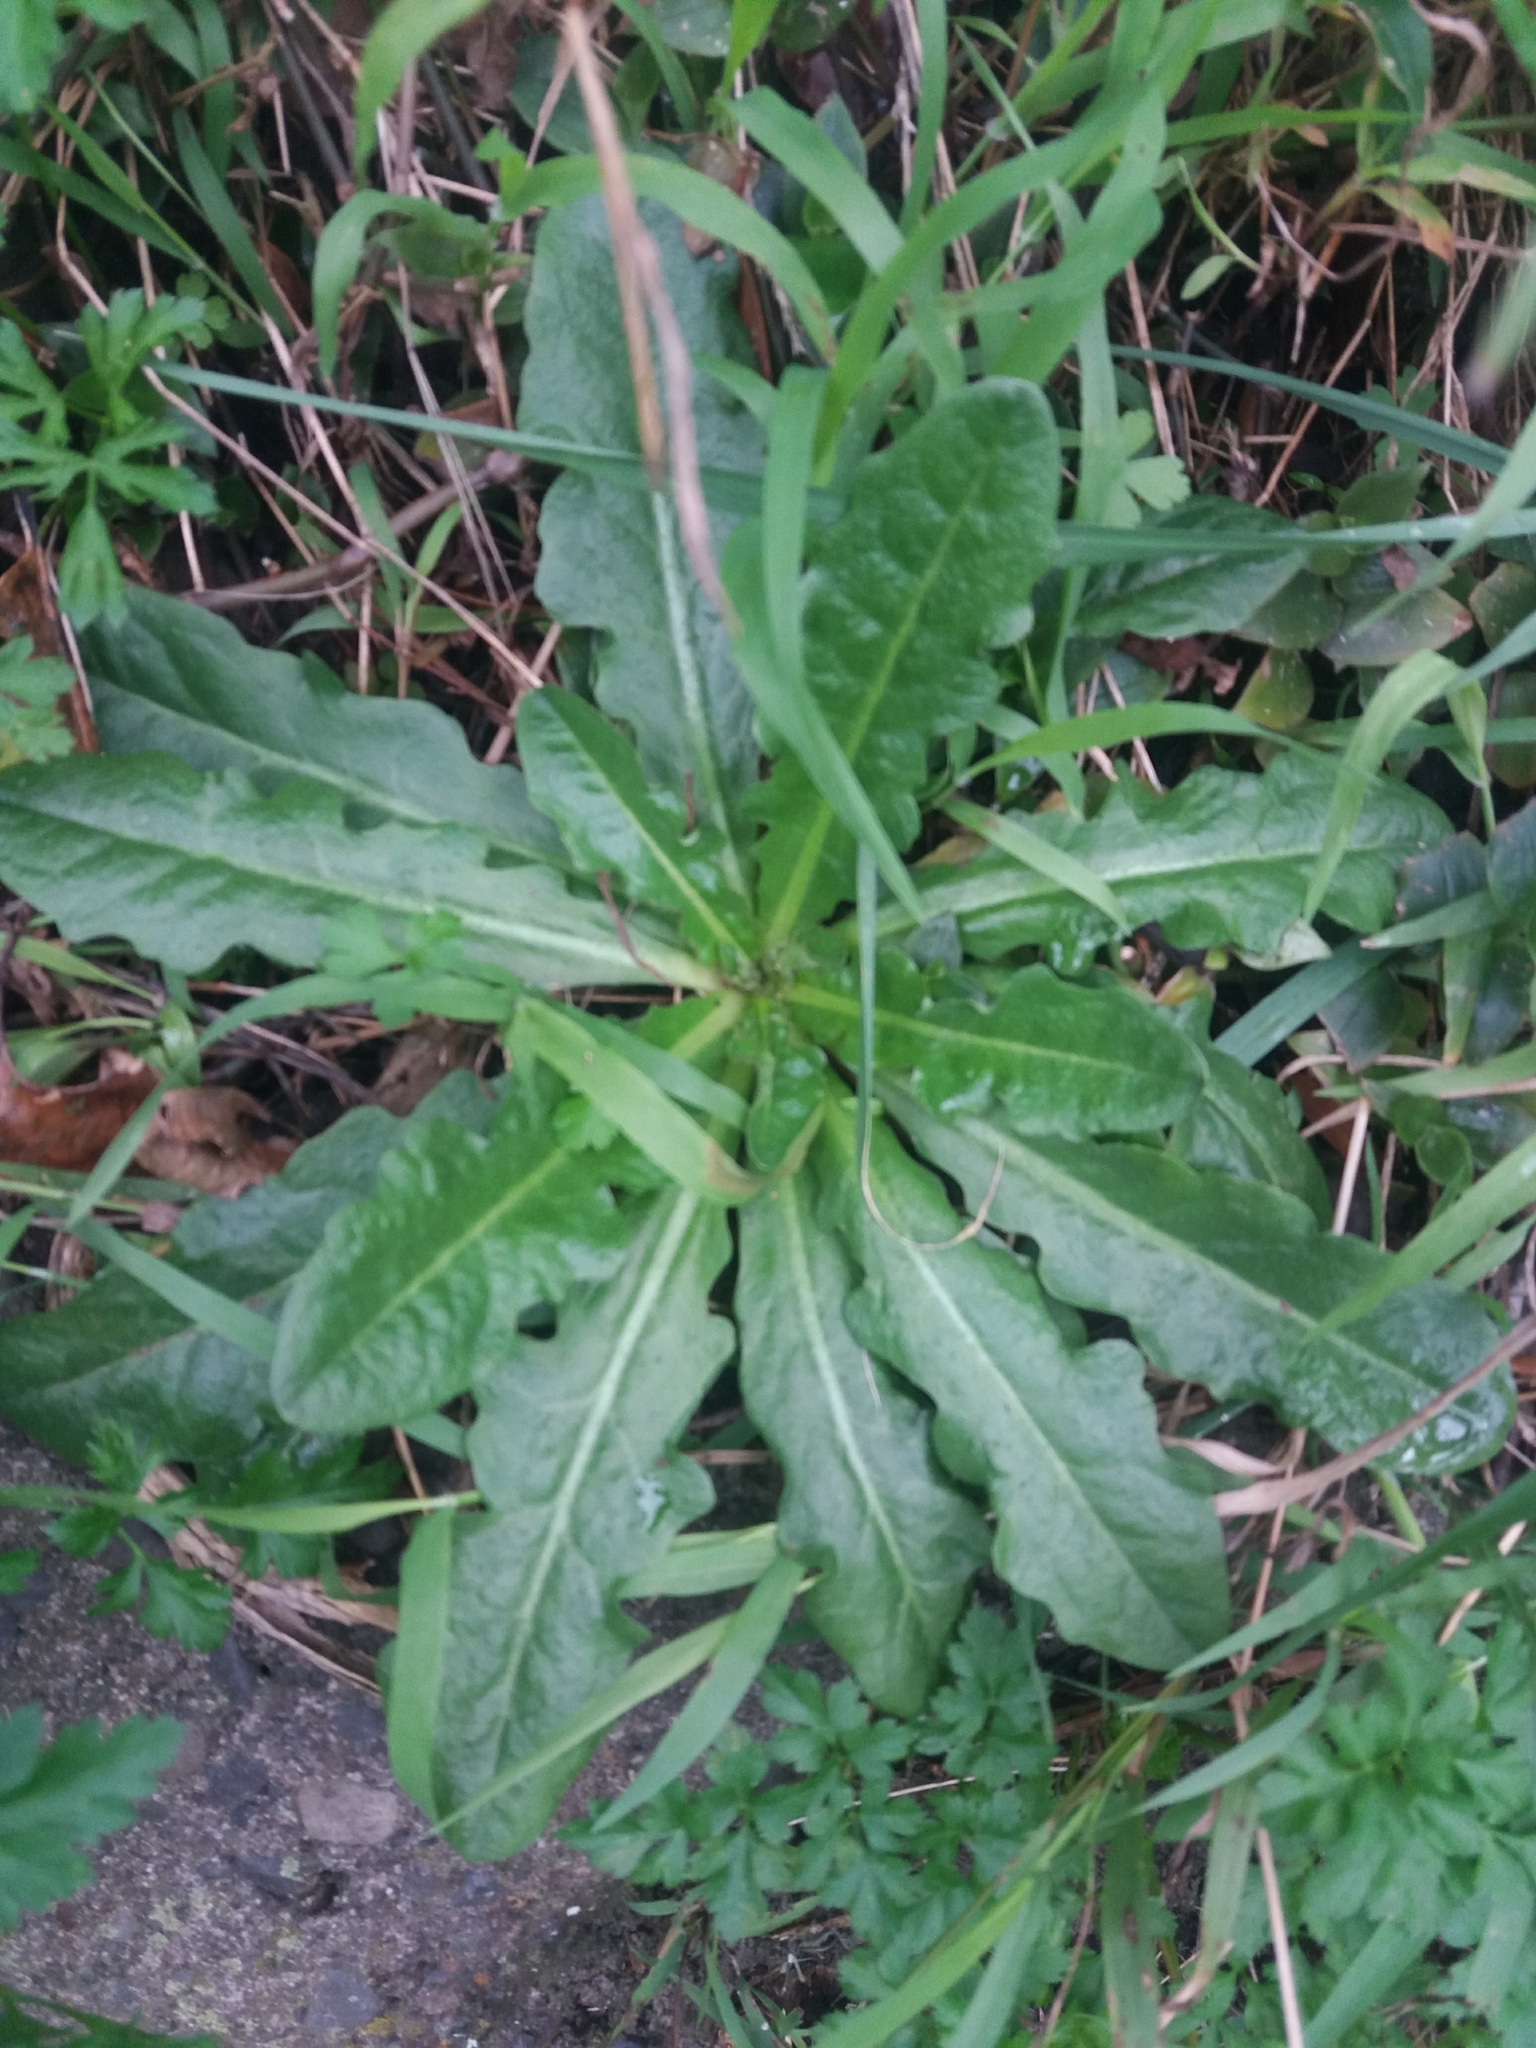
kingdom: Plantae
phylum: Tracheophyta
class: Magnoliopsida
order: Asterales
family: Asteraceae
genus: Hypochaeris
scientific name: Hypochaeris radicata
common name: Flatweed
